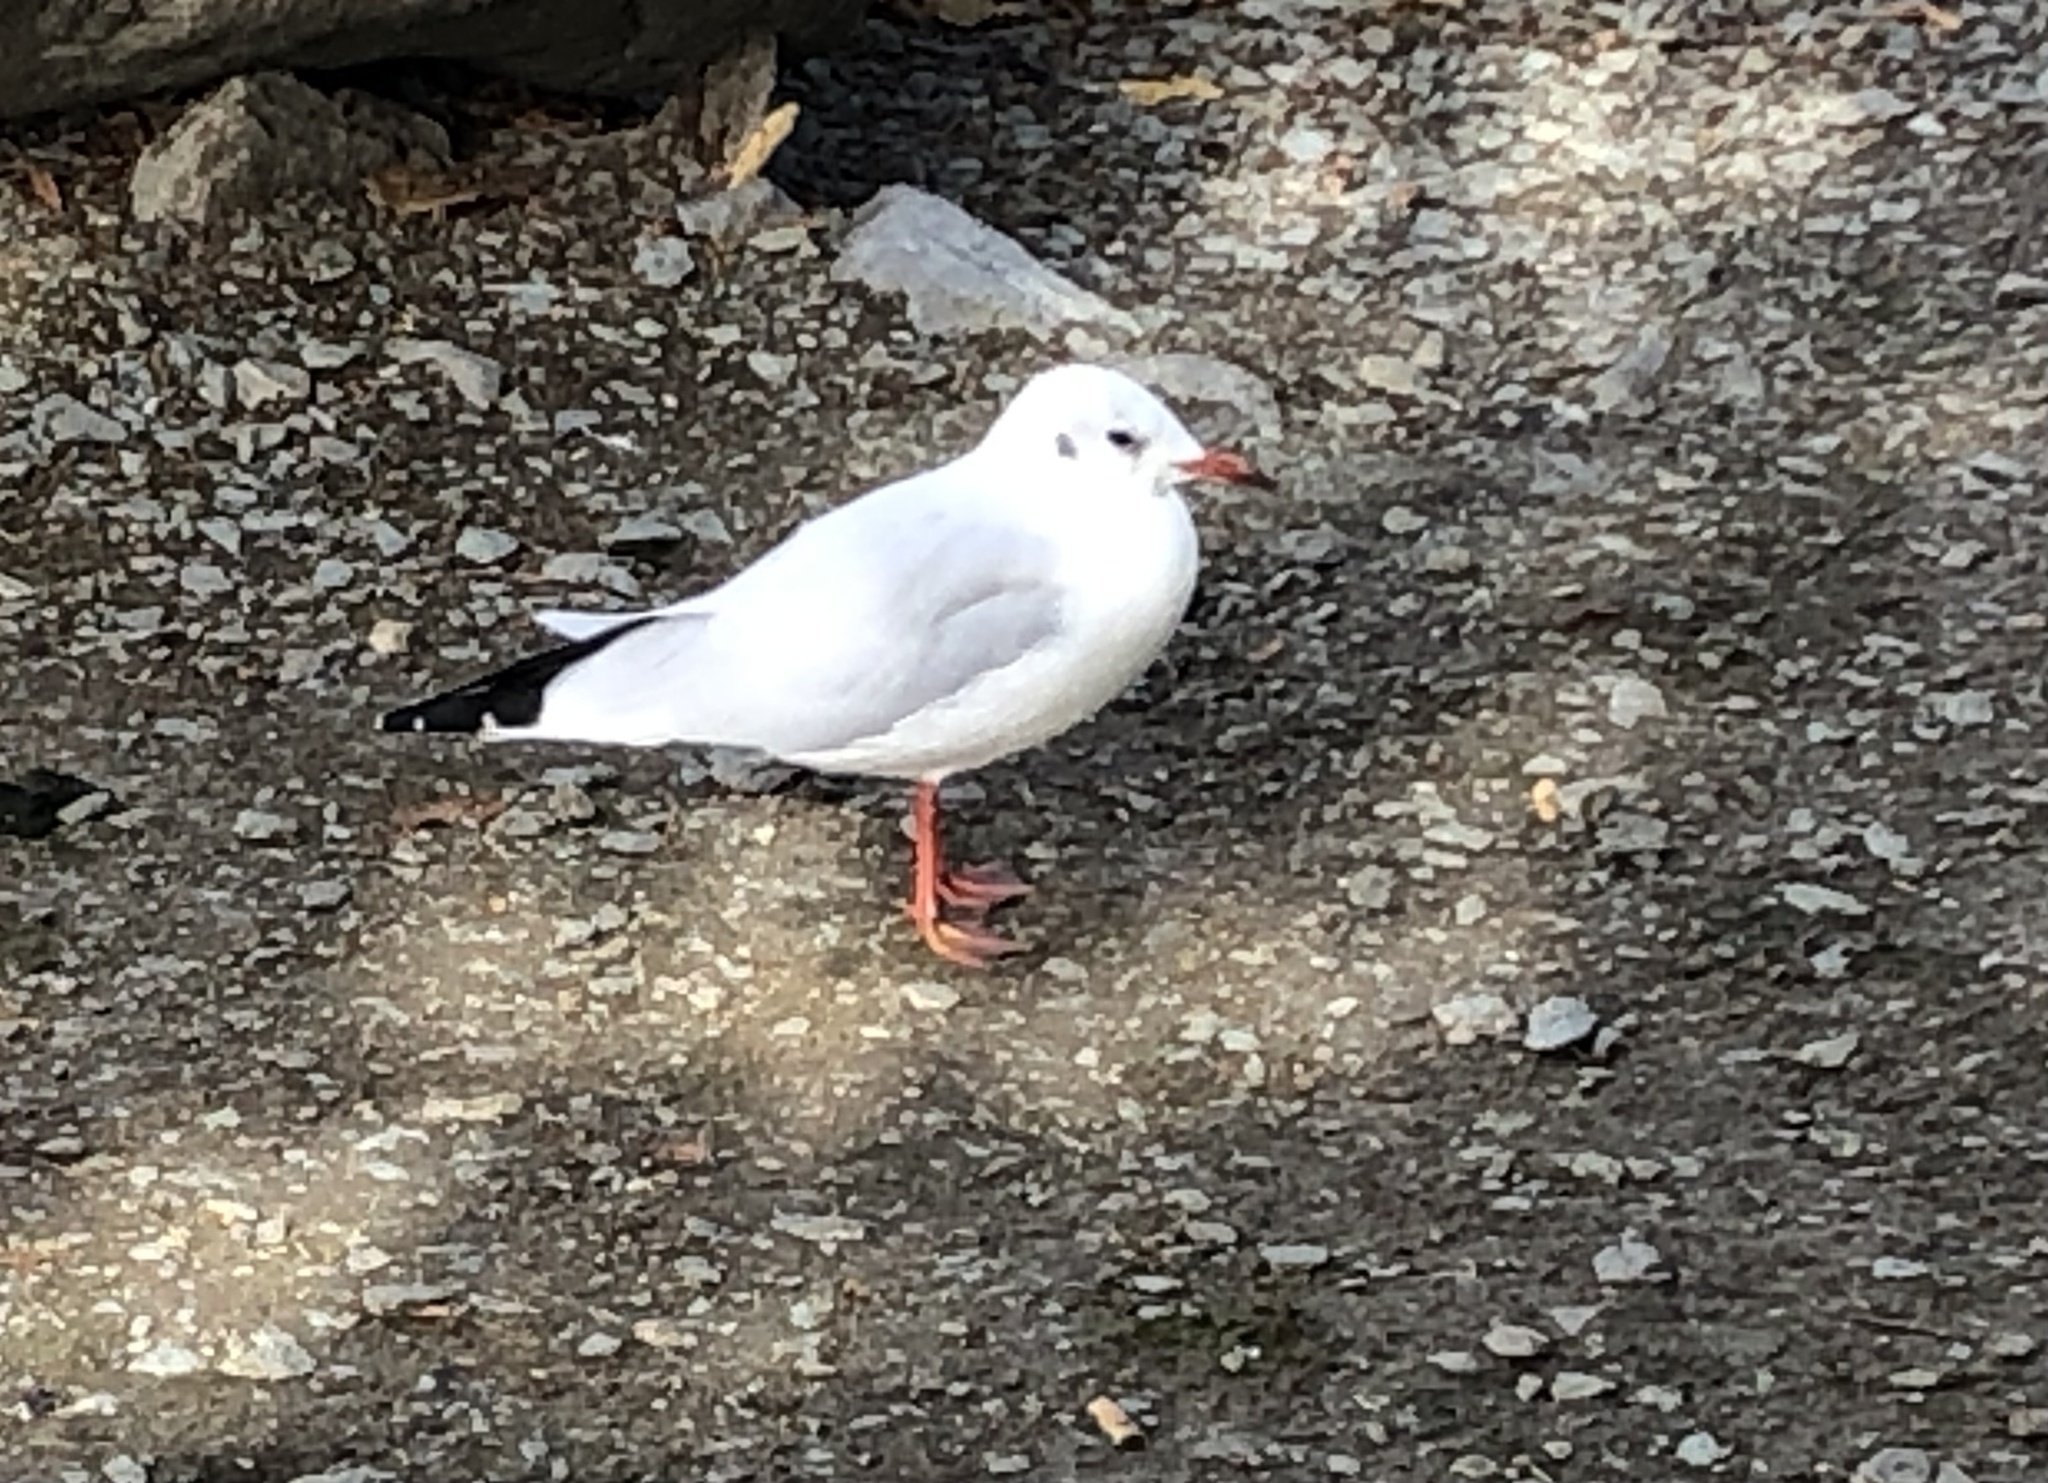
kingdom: Animalia
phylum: Chordata
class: Aves
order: Charadriiformes
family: Laridae
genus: Chroicocephalus
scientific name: Chroicocephalus ridibundus
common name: Black-headed gull
